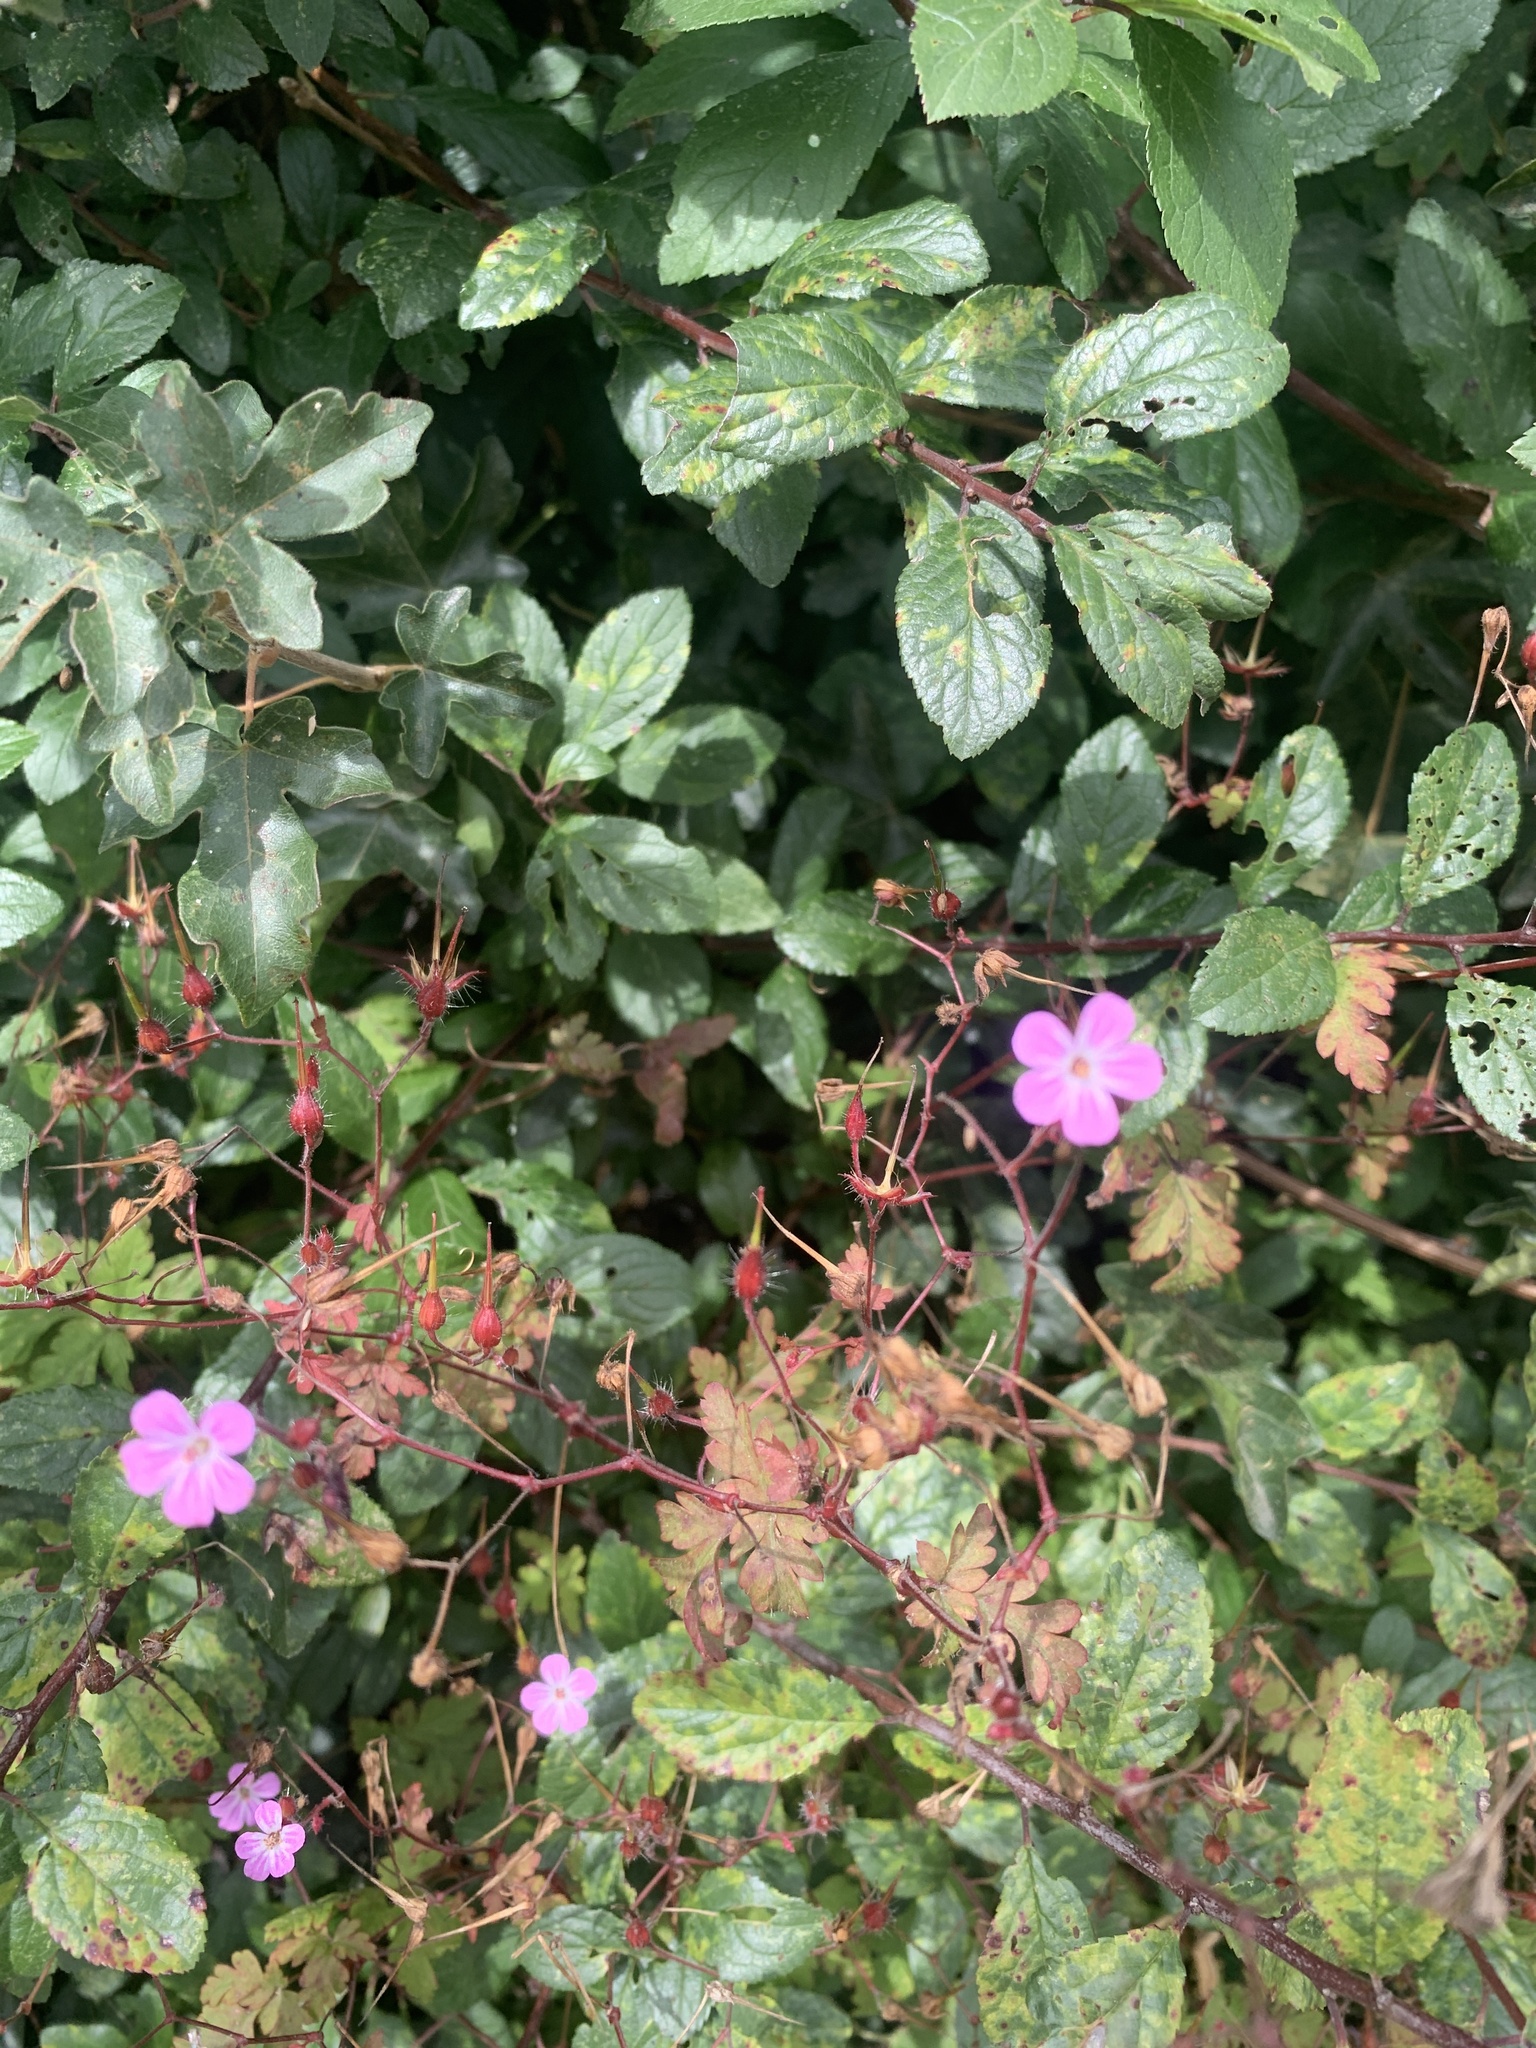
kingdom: Plantae
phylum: Tracheophyta
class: Magnoliopsida
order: Geraniales
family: Geraniaceae
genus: Geranium
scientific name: Geranium robertianum
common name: Herb-robert
